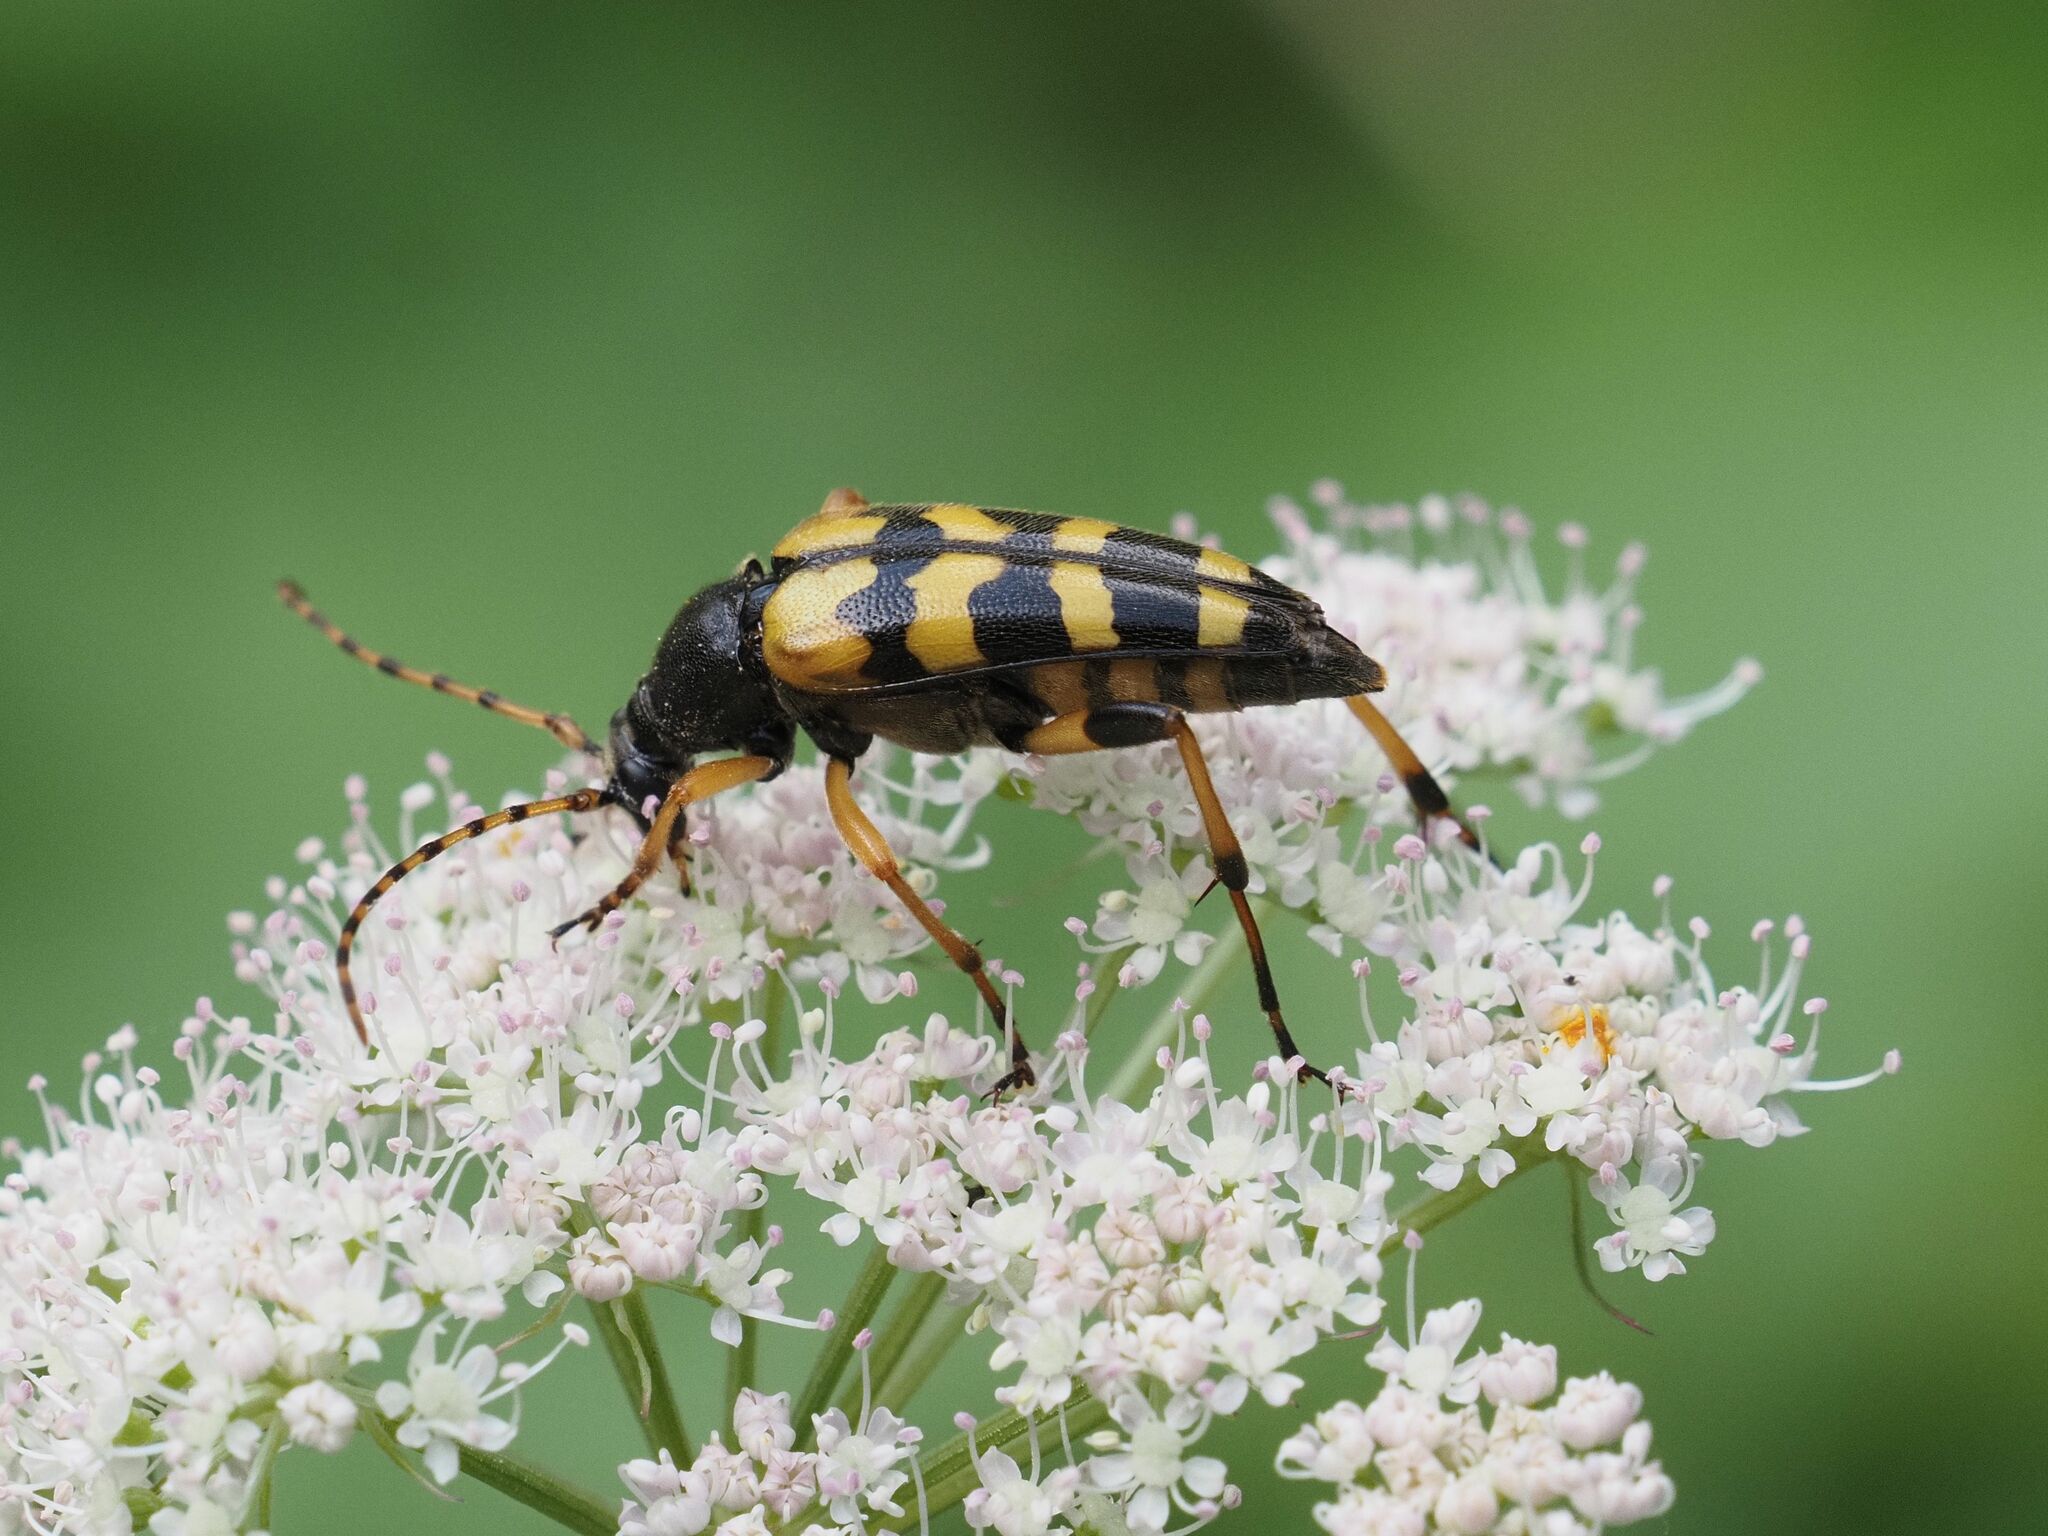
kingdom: Animalia
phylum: Arthropoda
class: Insecta
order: Coleoptera
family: Cerambycidae
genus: Rutpela
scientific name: Rutpela maculata
